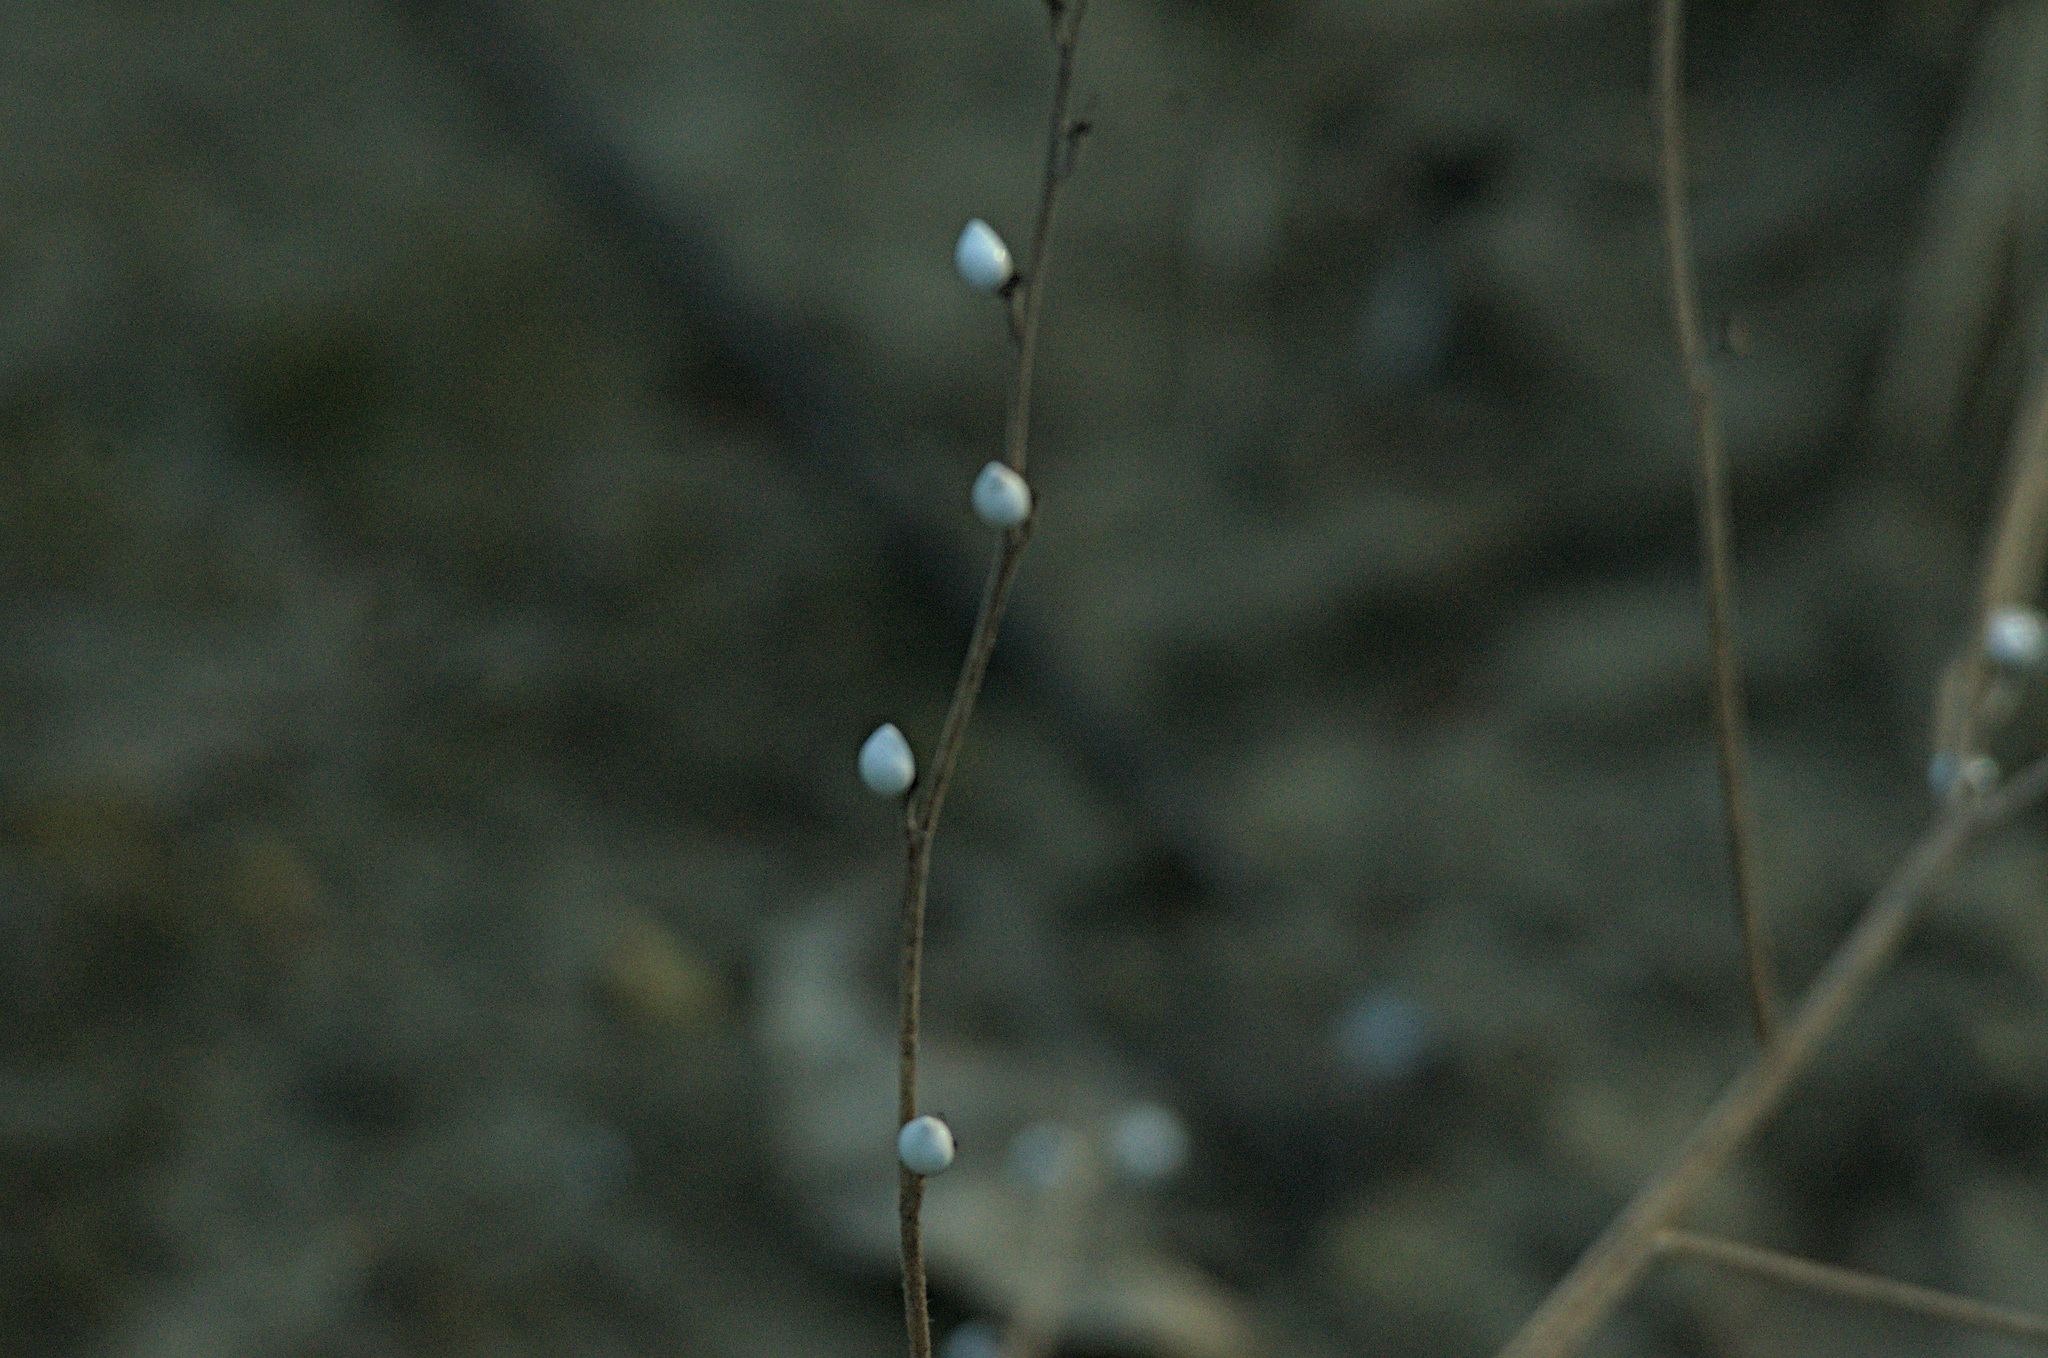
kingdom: Plantae
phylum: Tracheophyta
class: Magnoliopsida
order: Boraginales
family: Boraginaceae
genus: Lithospermum
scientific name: Lithospermum officinale
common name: Common gromwell
